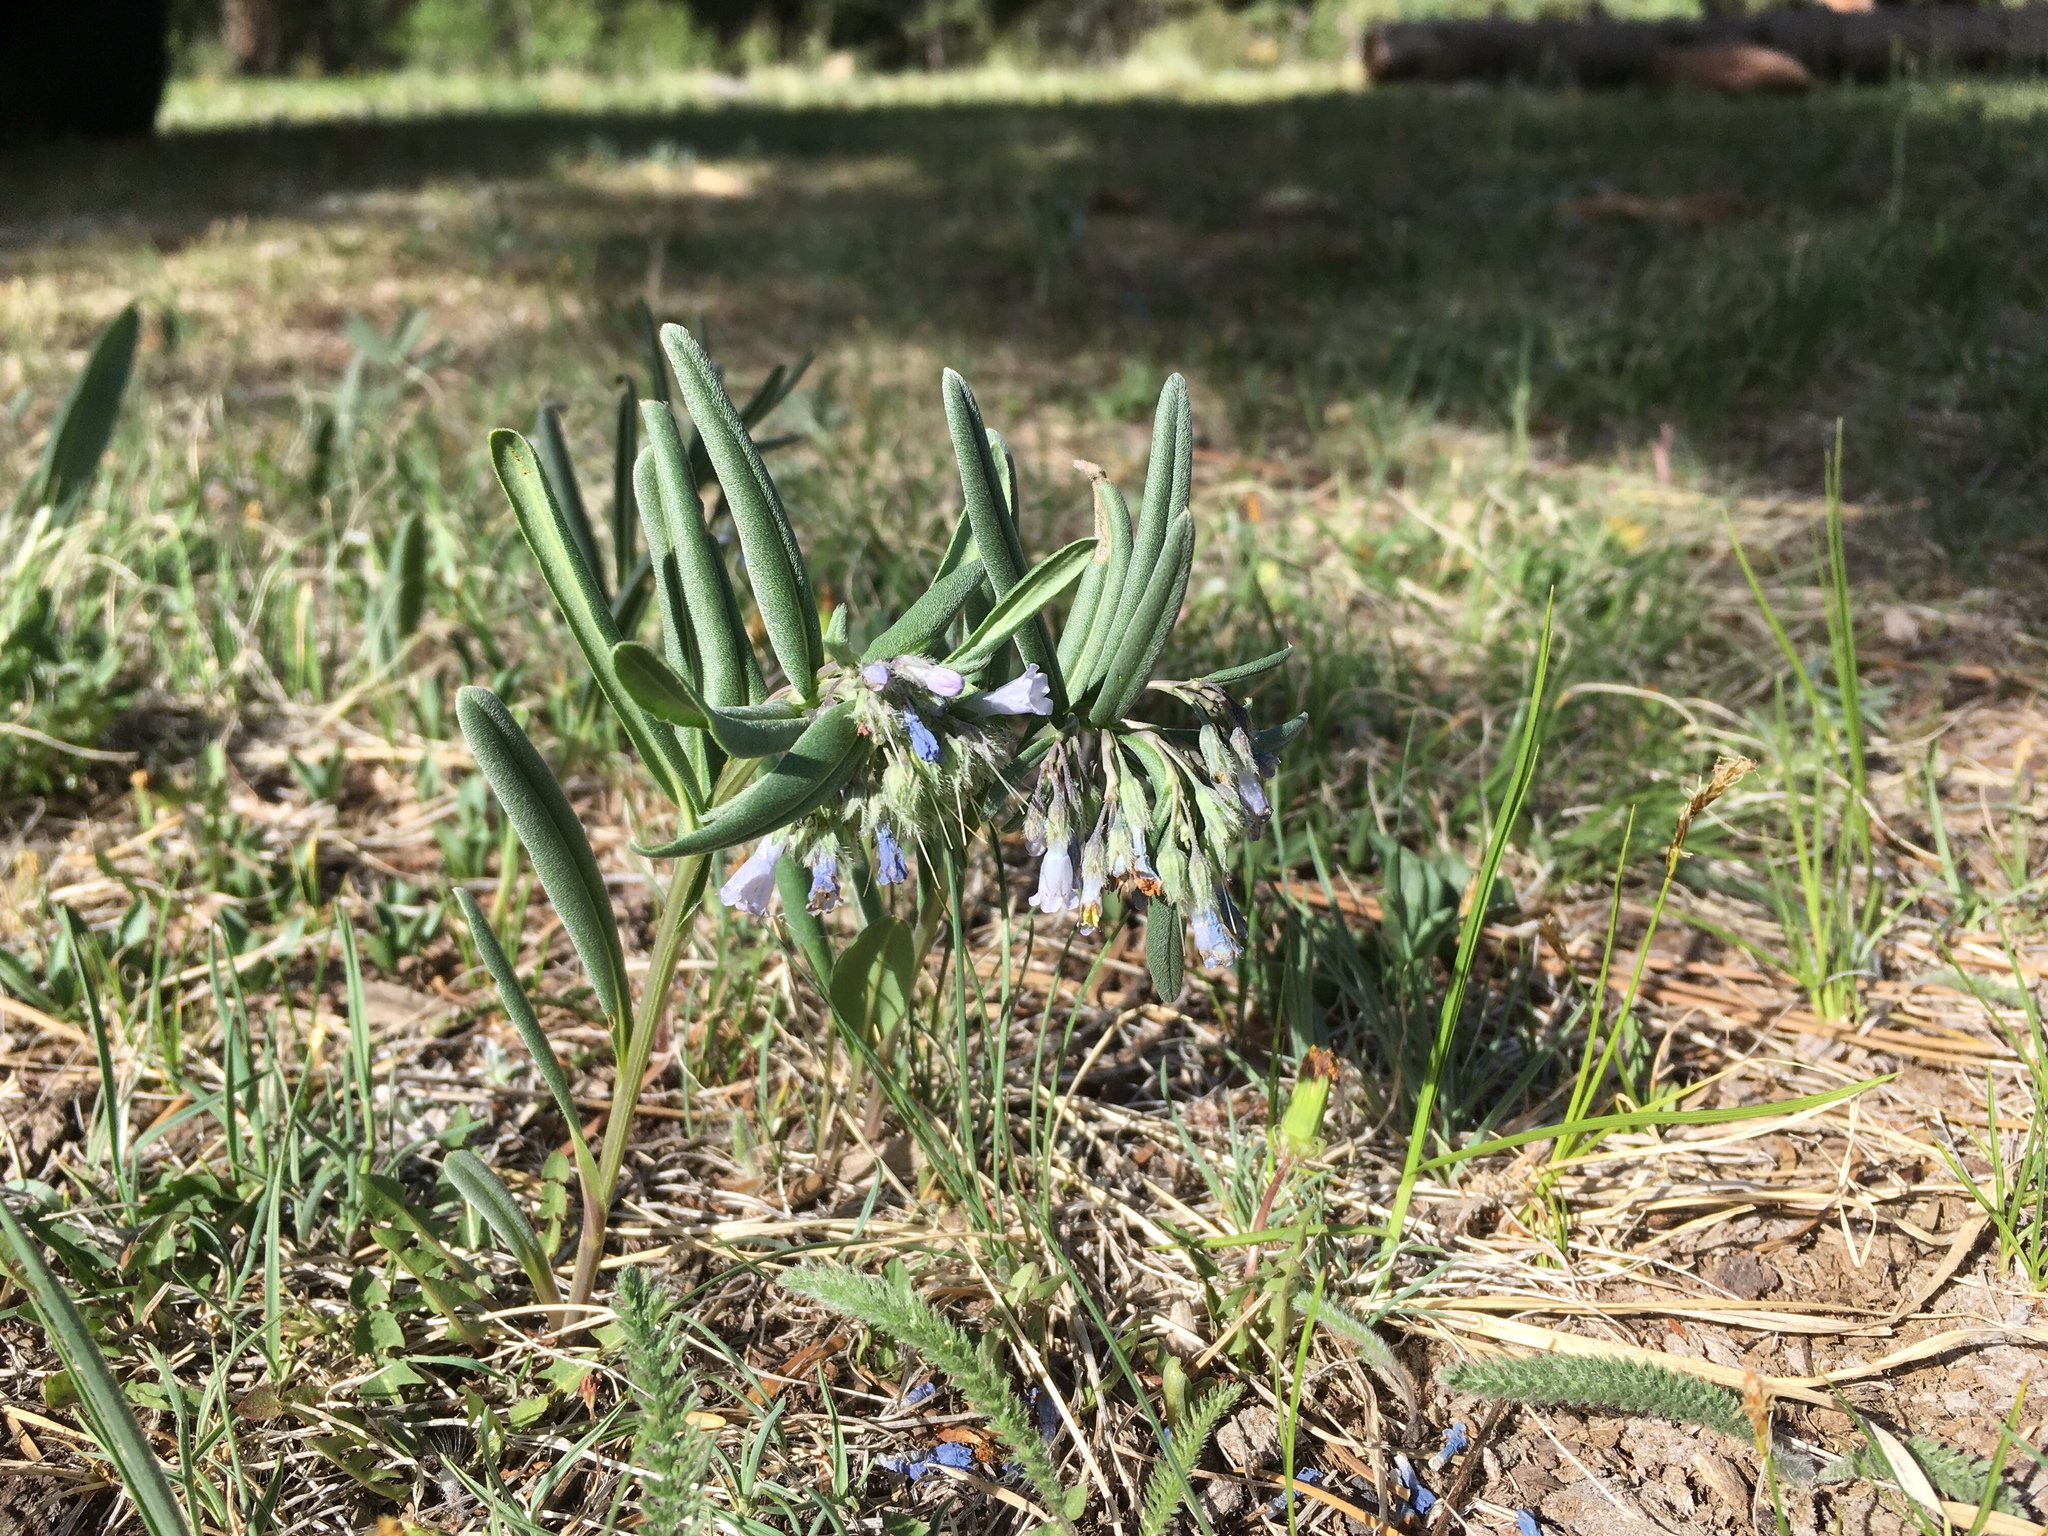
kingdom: Plantae
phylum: Tracheophyta
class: Magnoliopsida
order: Boraginales
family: Boraginaceae
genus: Mertensia
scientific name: Mertensia fendleri
